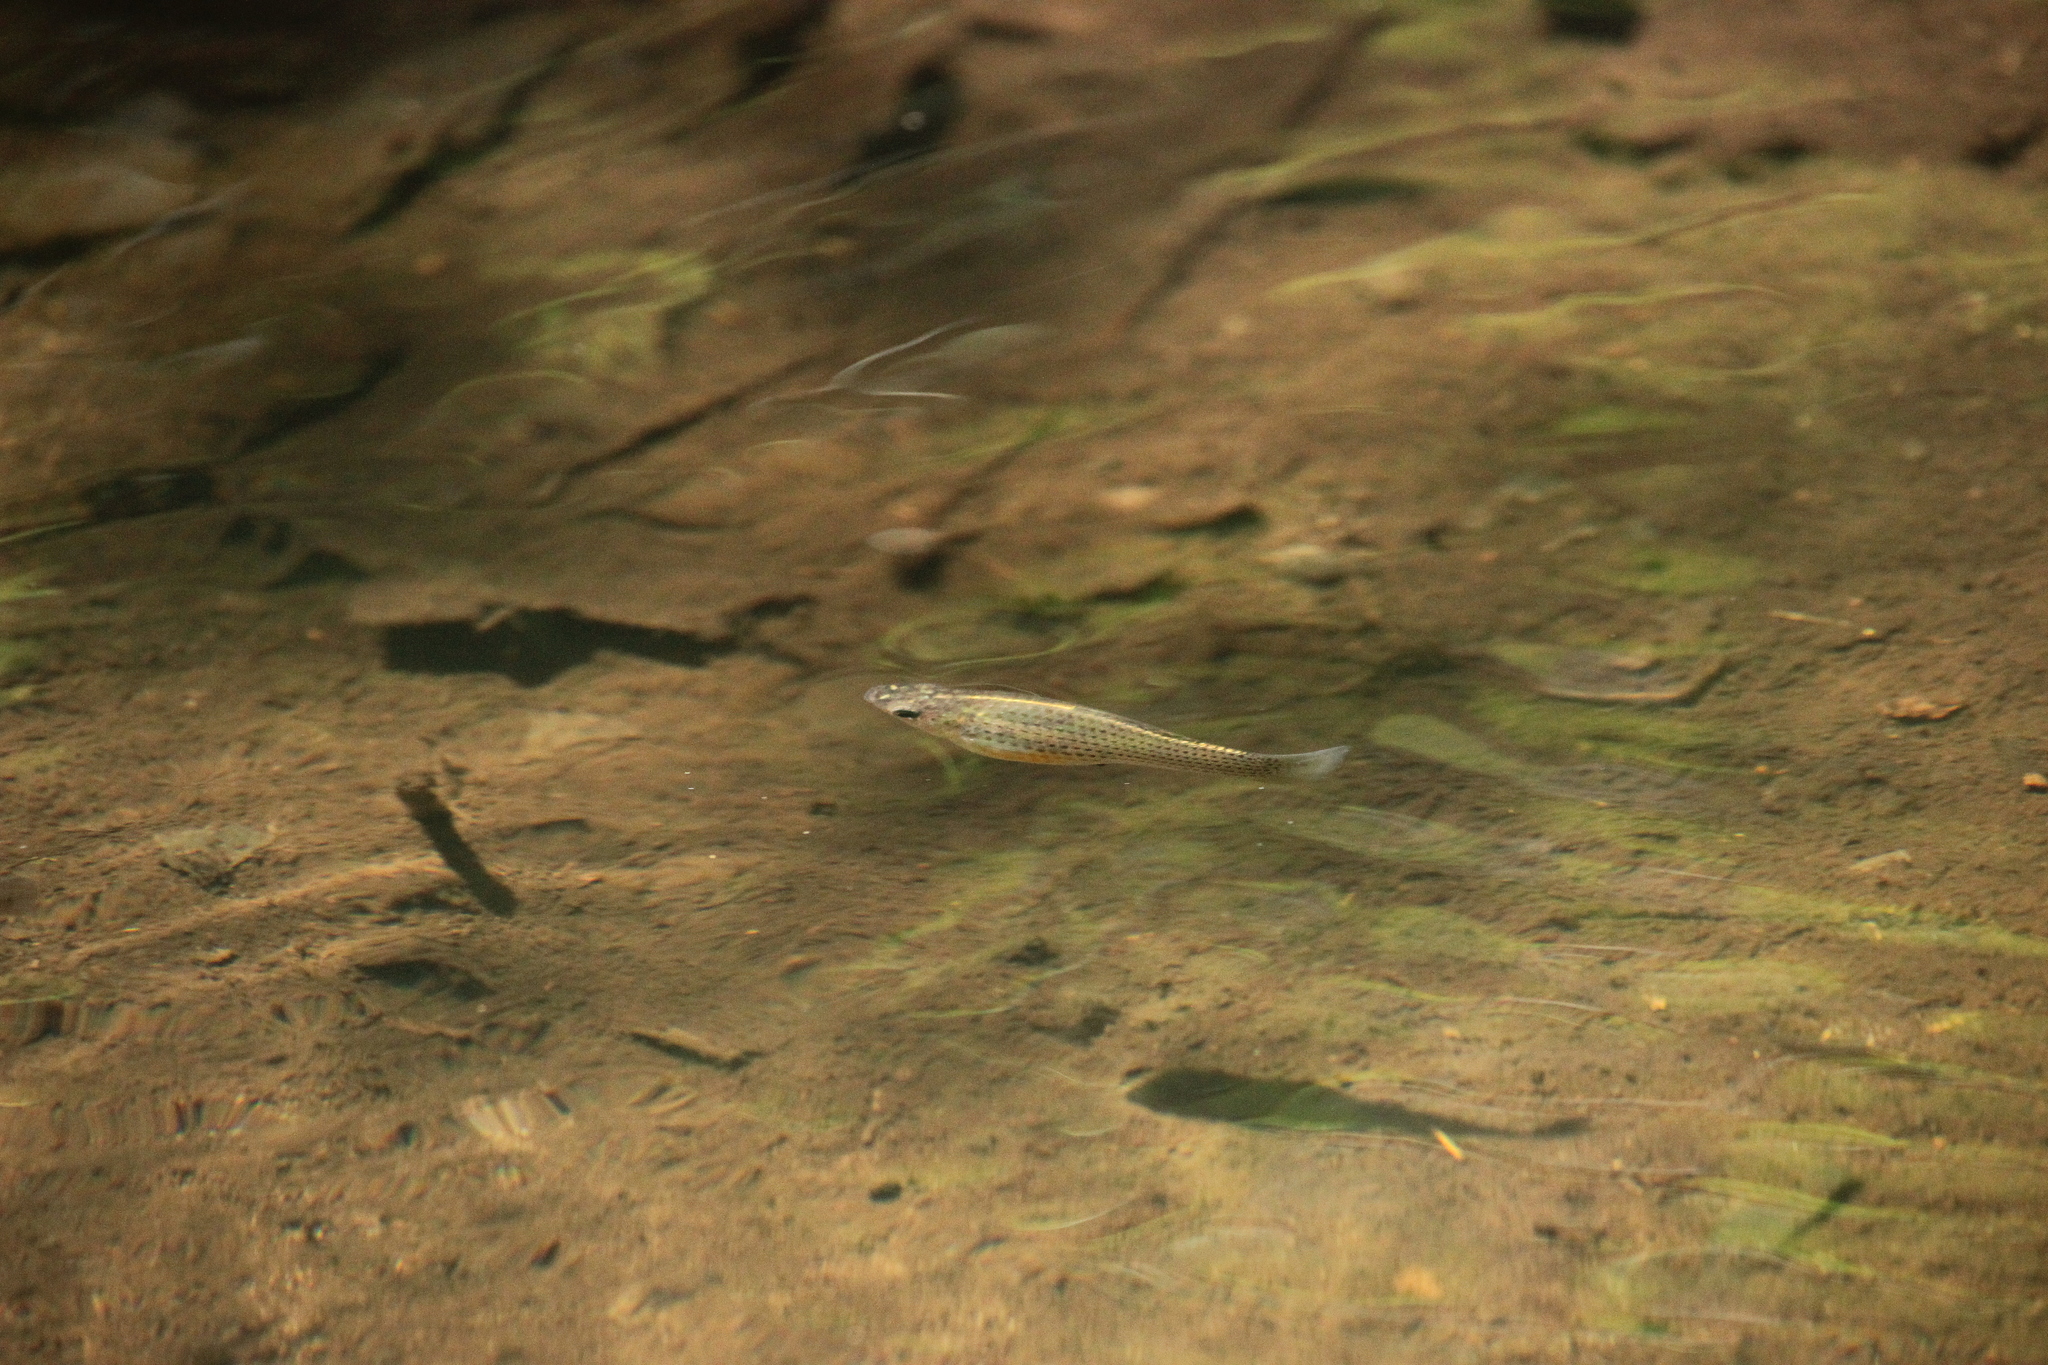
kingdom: Animalia
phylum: Chordata
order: Cyprinodontiformes
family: Poeciliidae
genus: Poecilia
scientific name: Poecilia latipinna
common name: Sailfin molly
